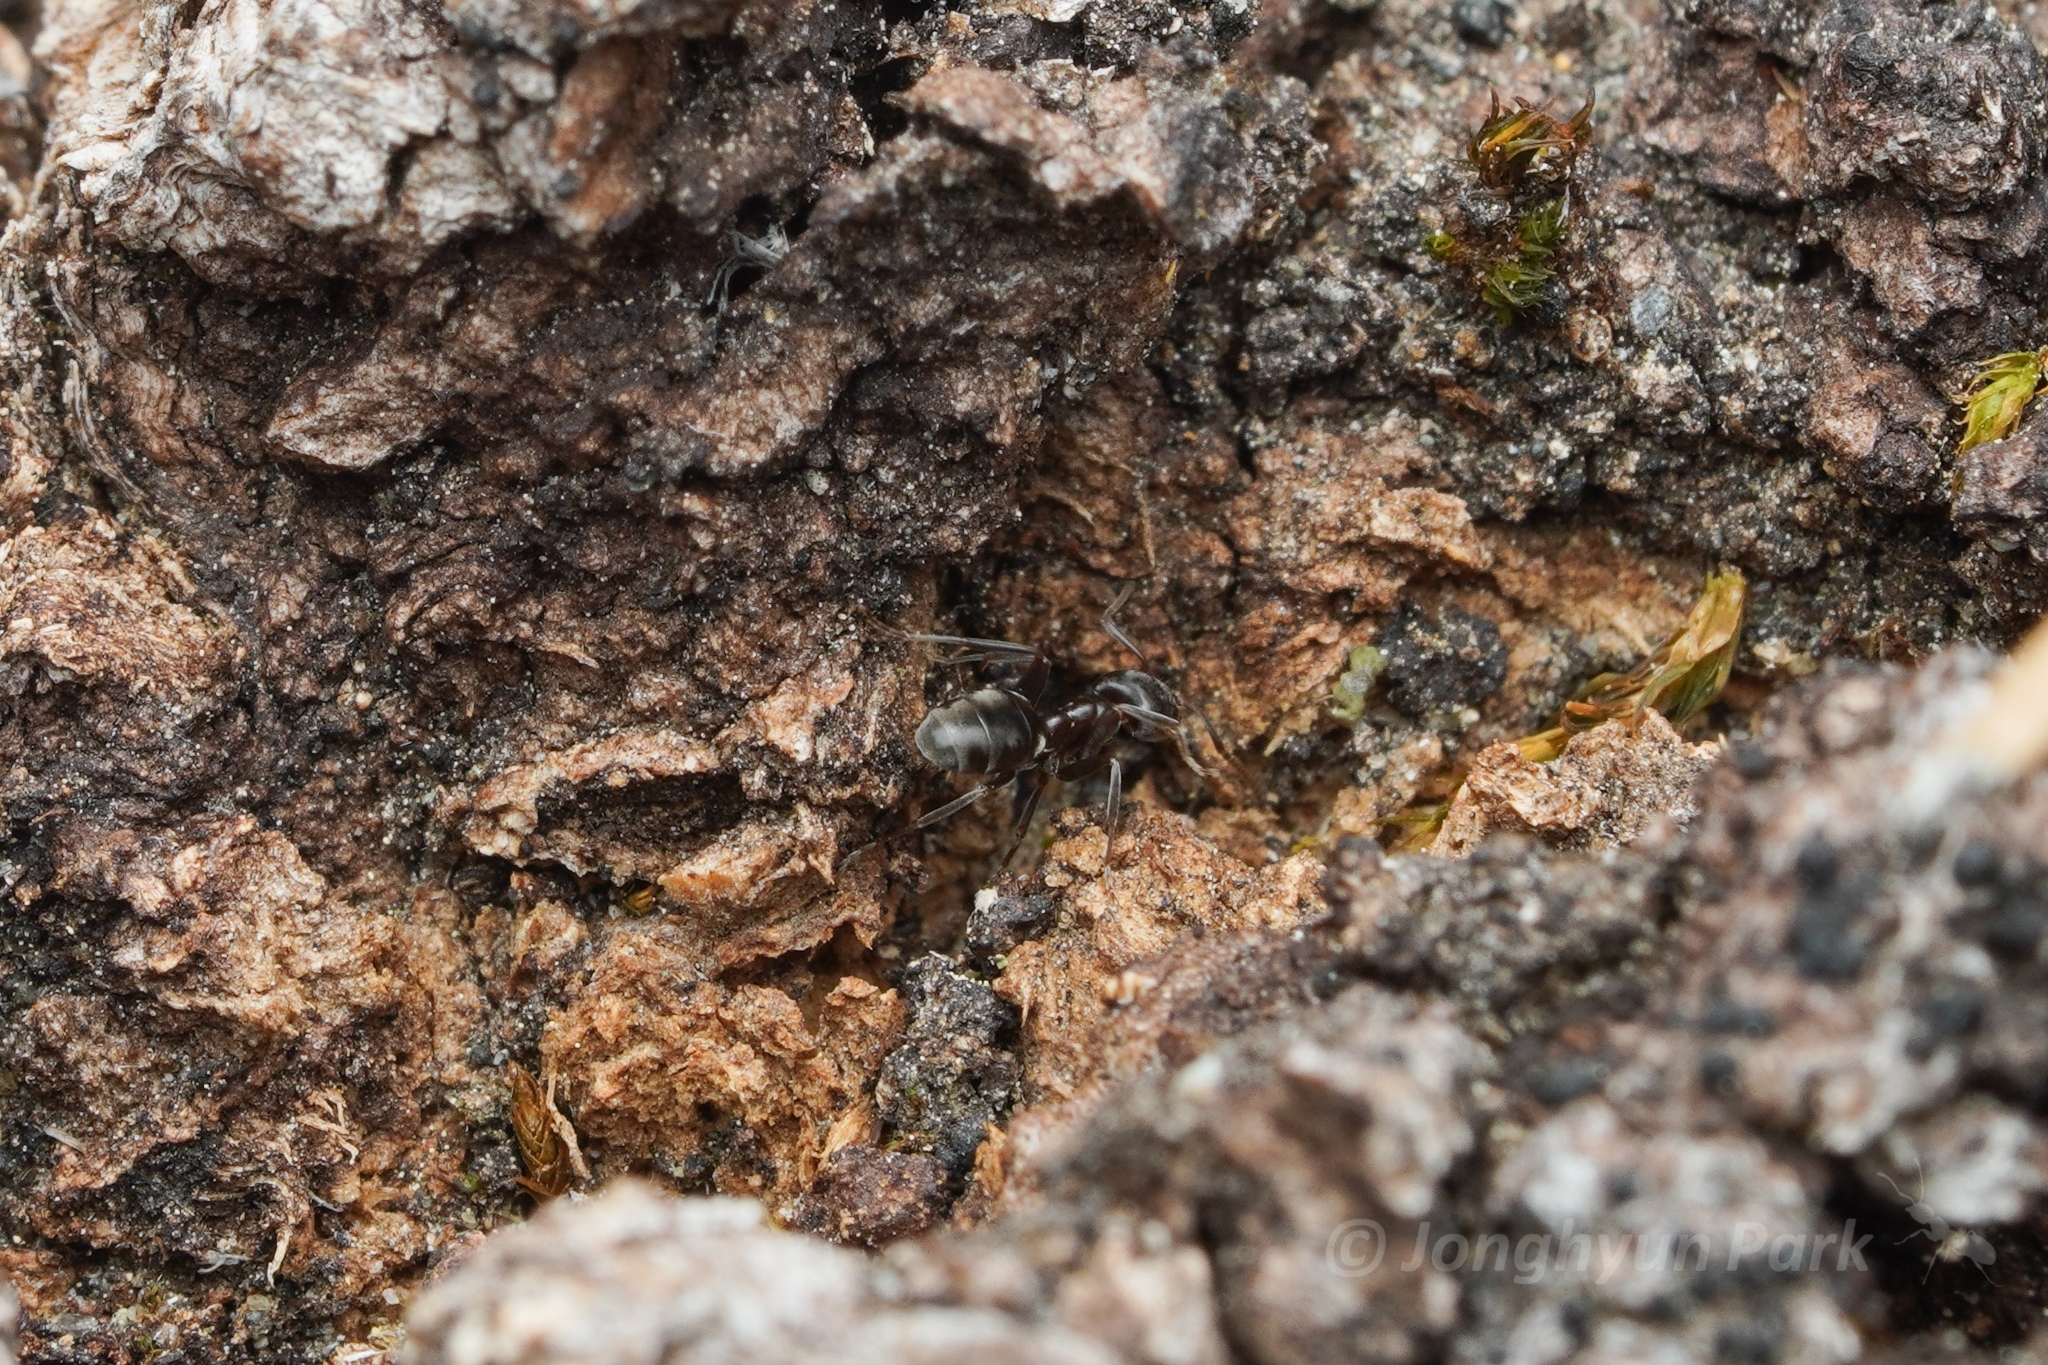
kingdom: Animalia
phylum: Arthropoda
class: Insecta
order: Hymenoptera
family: Formicidae
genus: Liometopum
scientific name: Liometopum luctuosum
